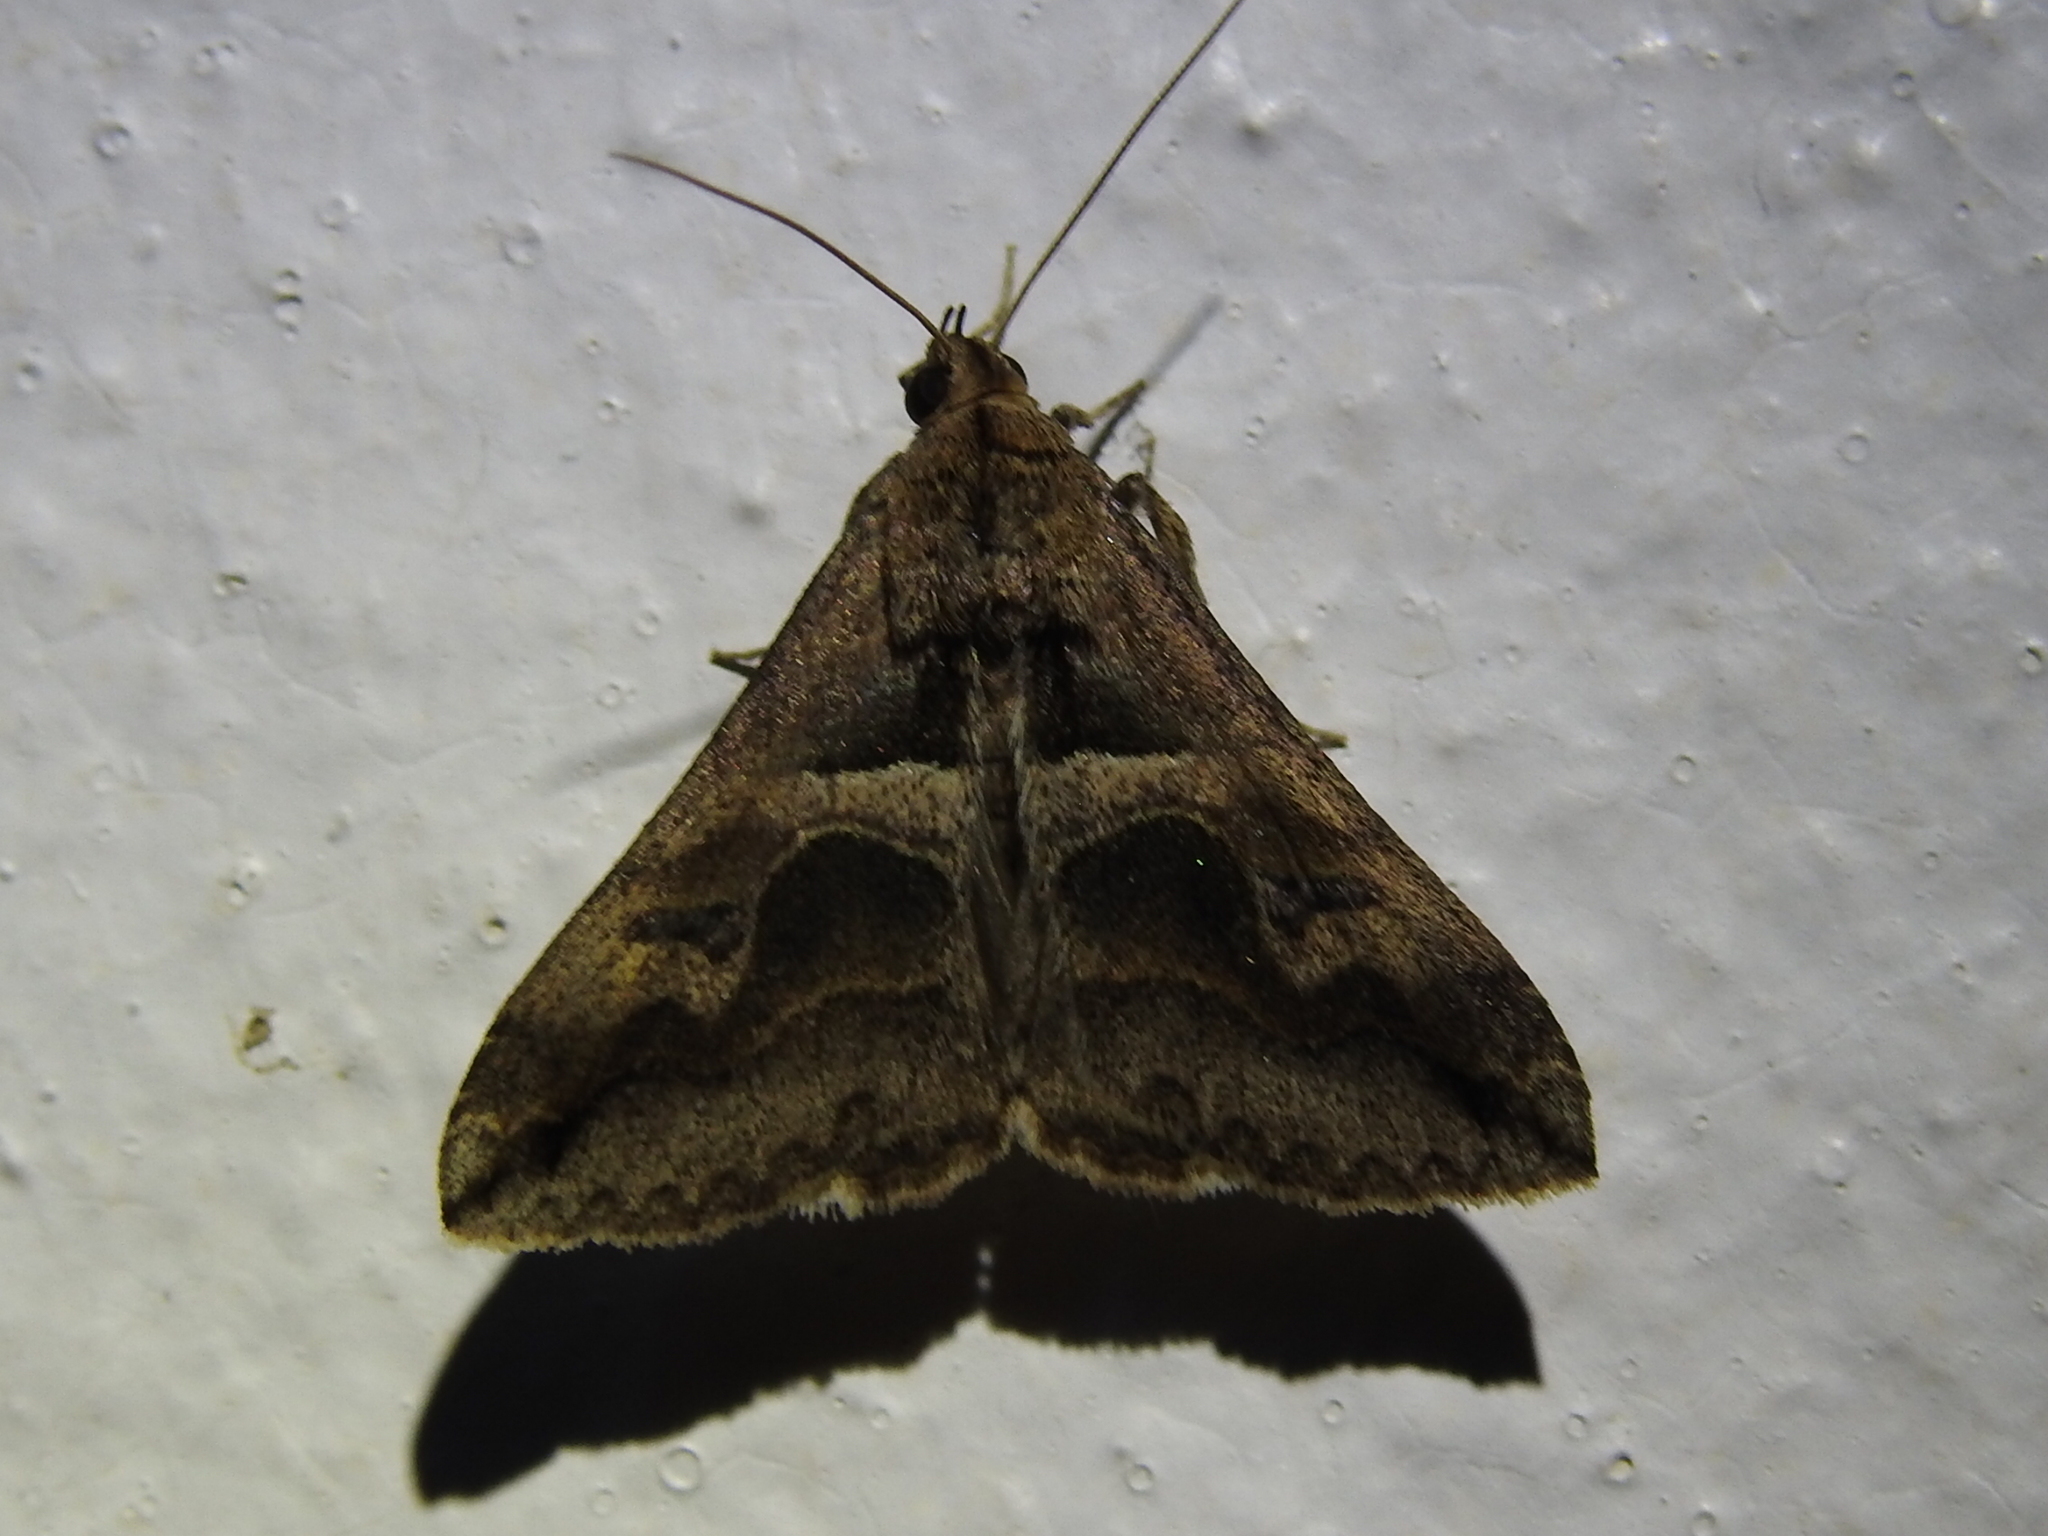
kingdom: Animalia
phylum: Arthropoda
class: Insecta
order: Lepidoptera
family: Erebidae
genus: Melipotis
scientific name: Melipotis cellaris
